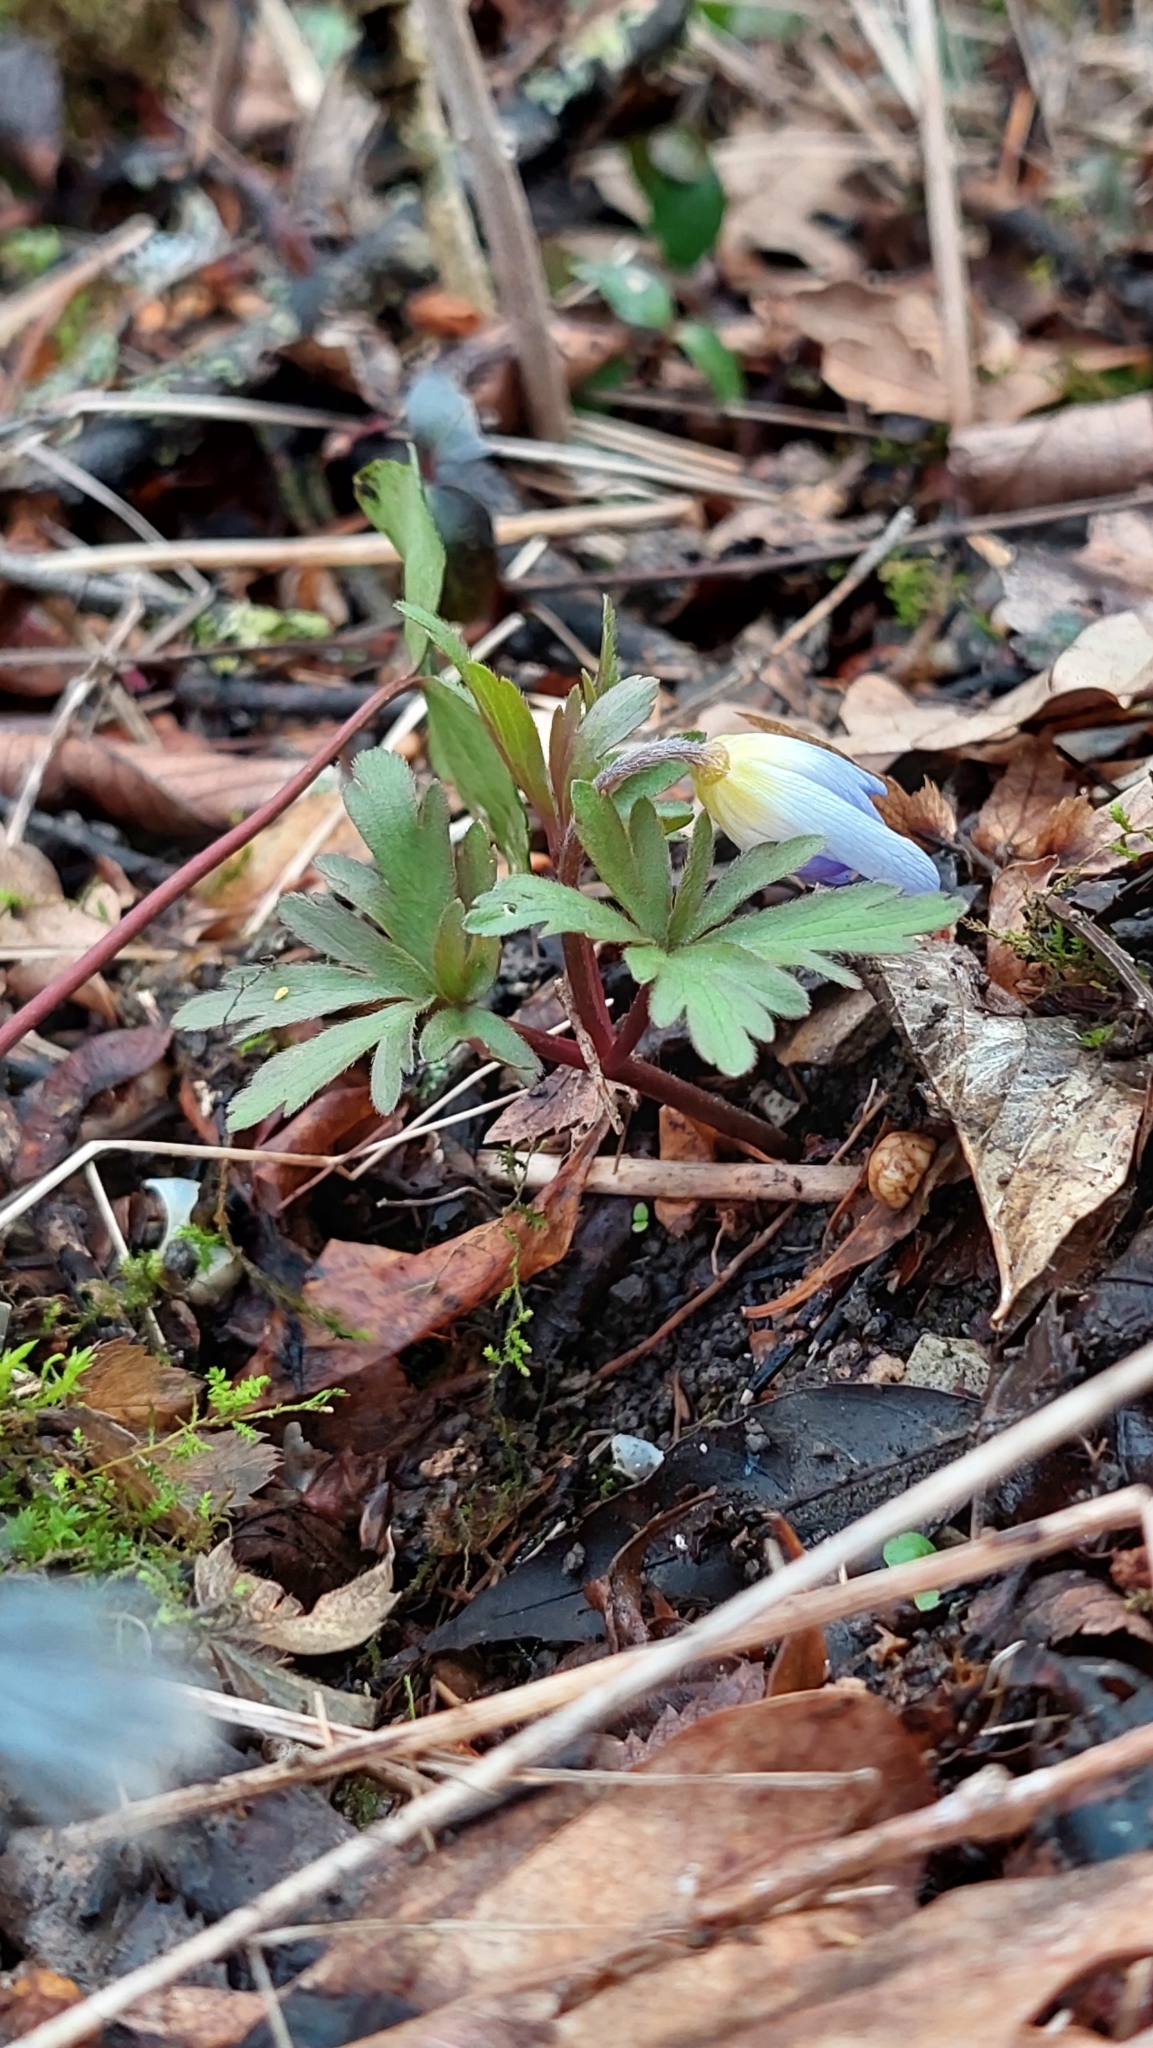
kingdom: Plantae
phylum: Tracheophyta
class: Magnoliopsida
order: Ranunculales
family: Ranunculaceae
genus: Anemone
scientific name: Anemone blanda
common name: Balkan anemone
